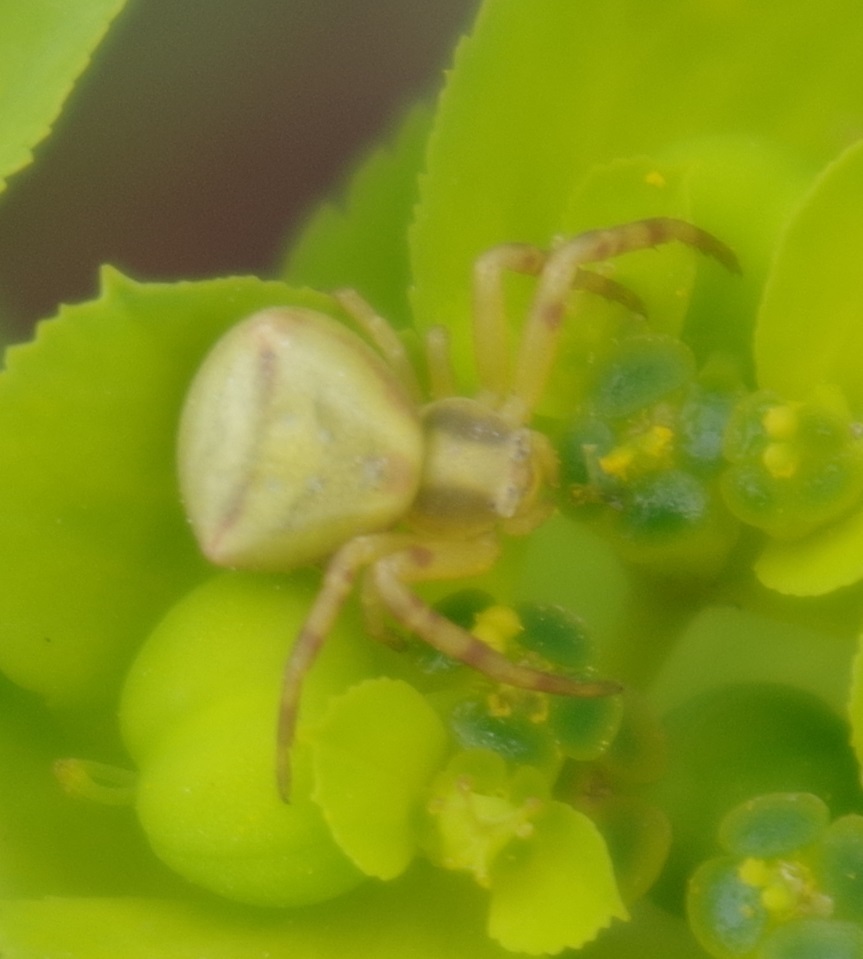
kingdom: Animalia
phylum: Arthropoda
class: Arachnida
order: Araneae
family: Thomisidae
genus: Thomisus
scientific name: Thomisus onustus
